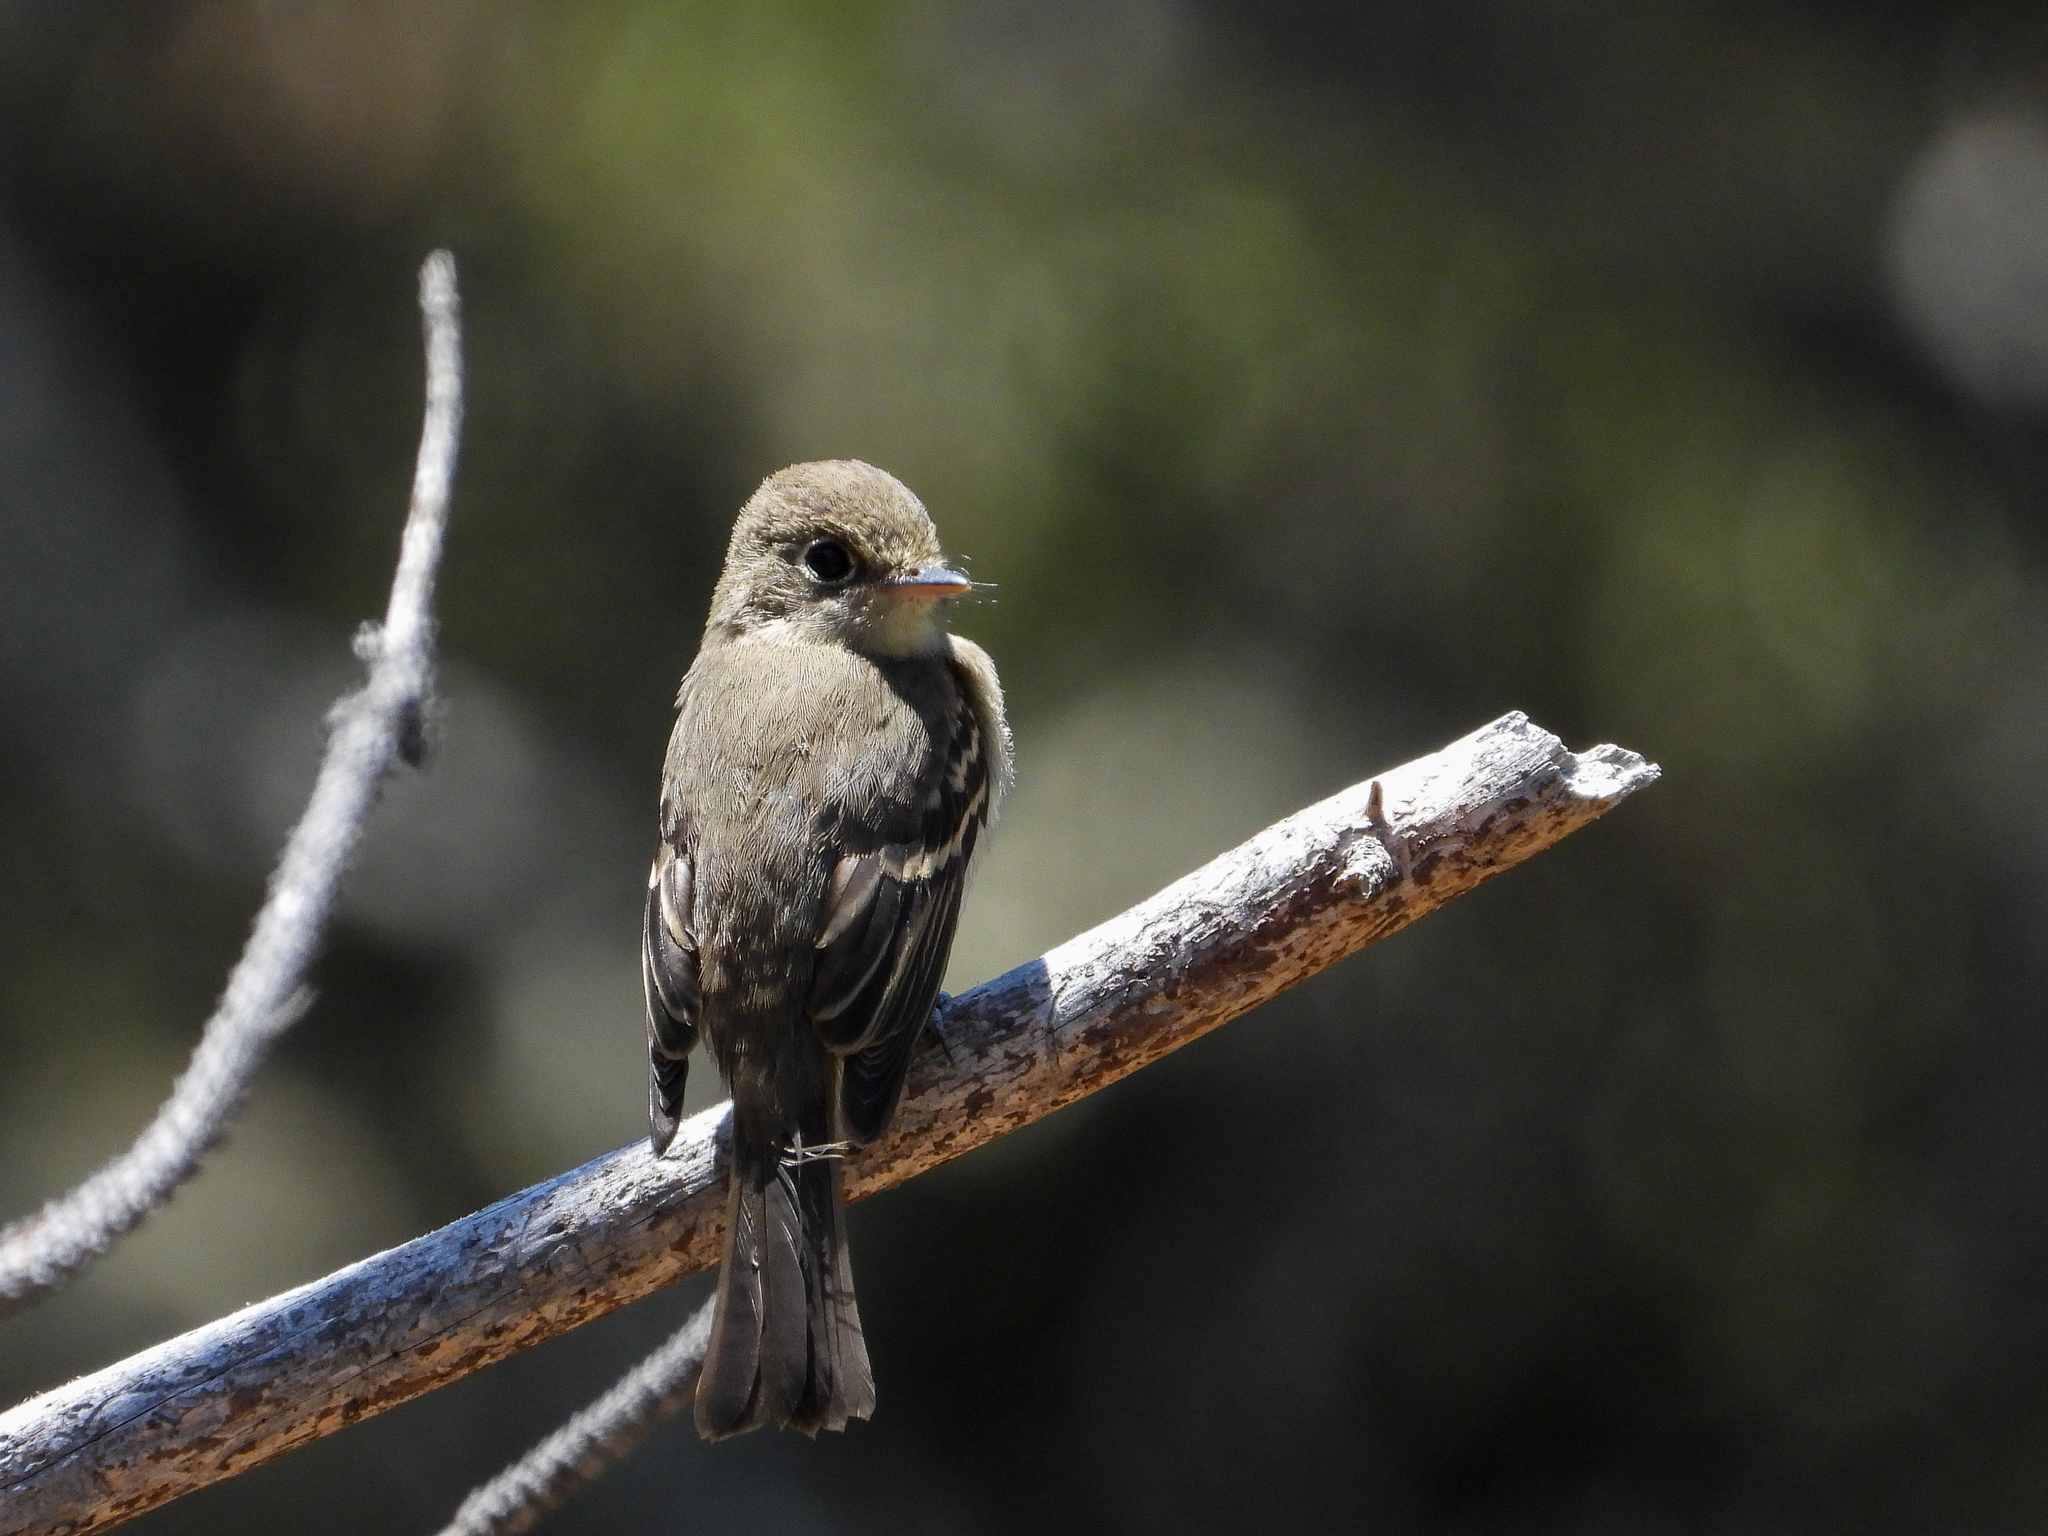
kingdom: Animalia
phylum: Chordata
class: Aves
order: Passeriformes
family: Tyrannidae
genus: Empidonax
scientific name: Empidonax difficilis
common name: Pacific-slope flycatcher
